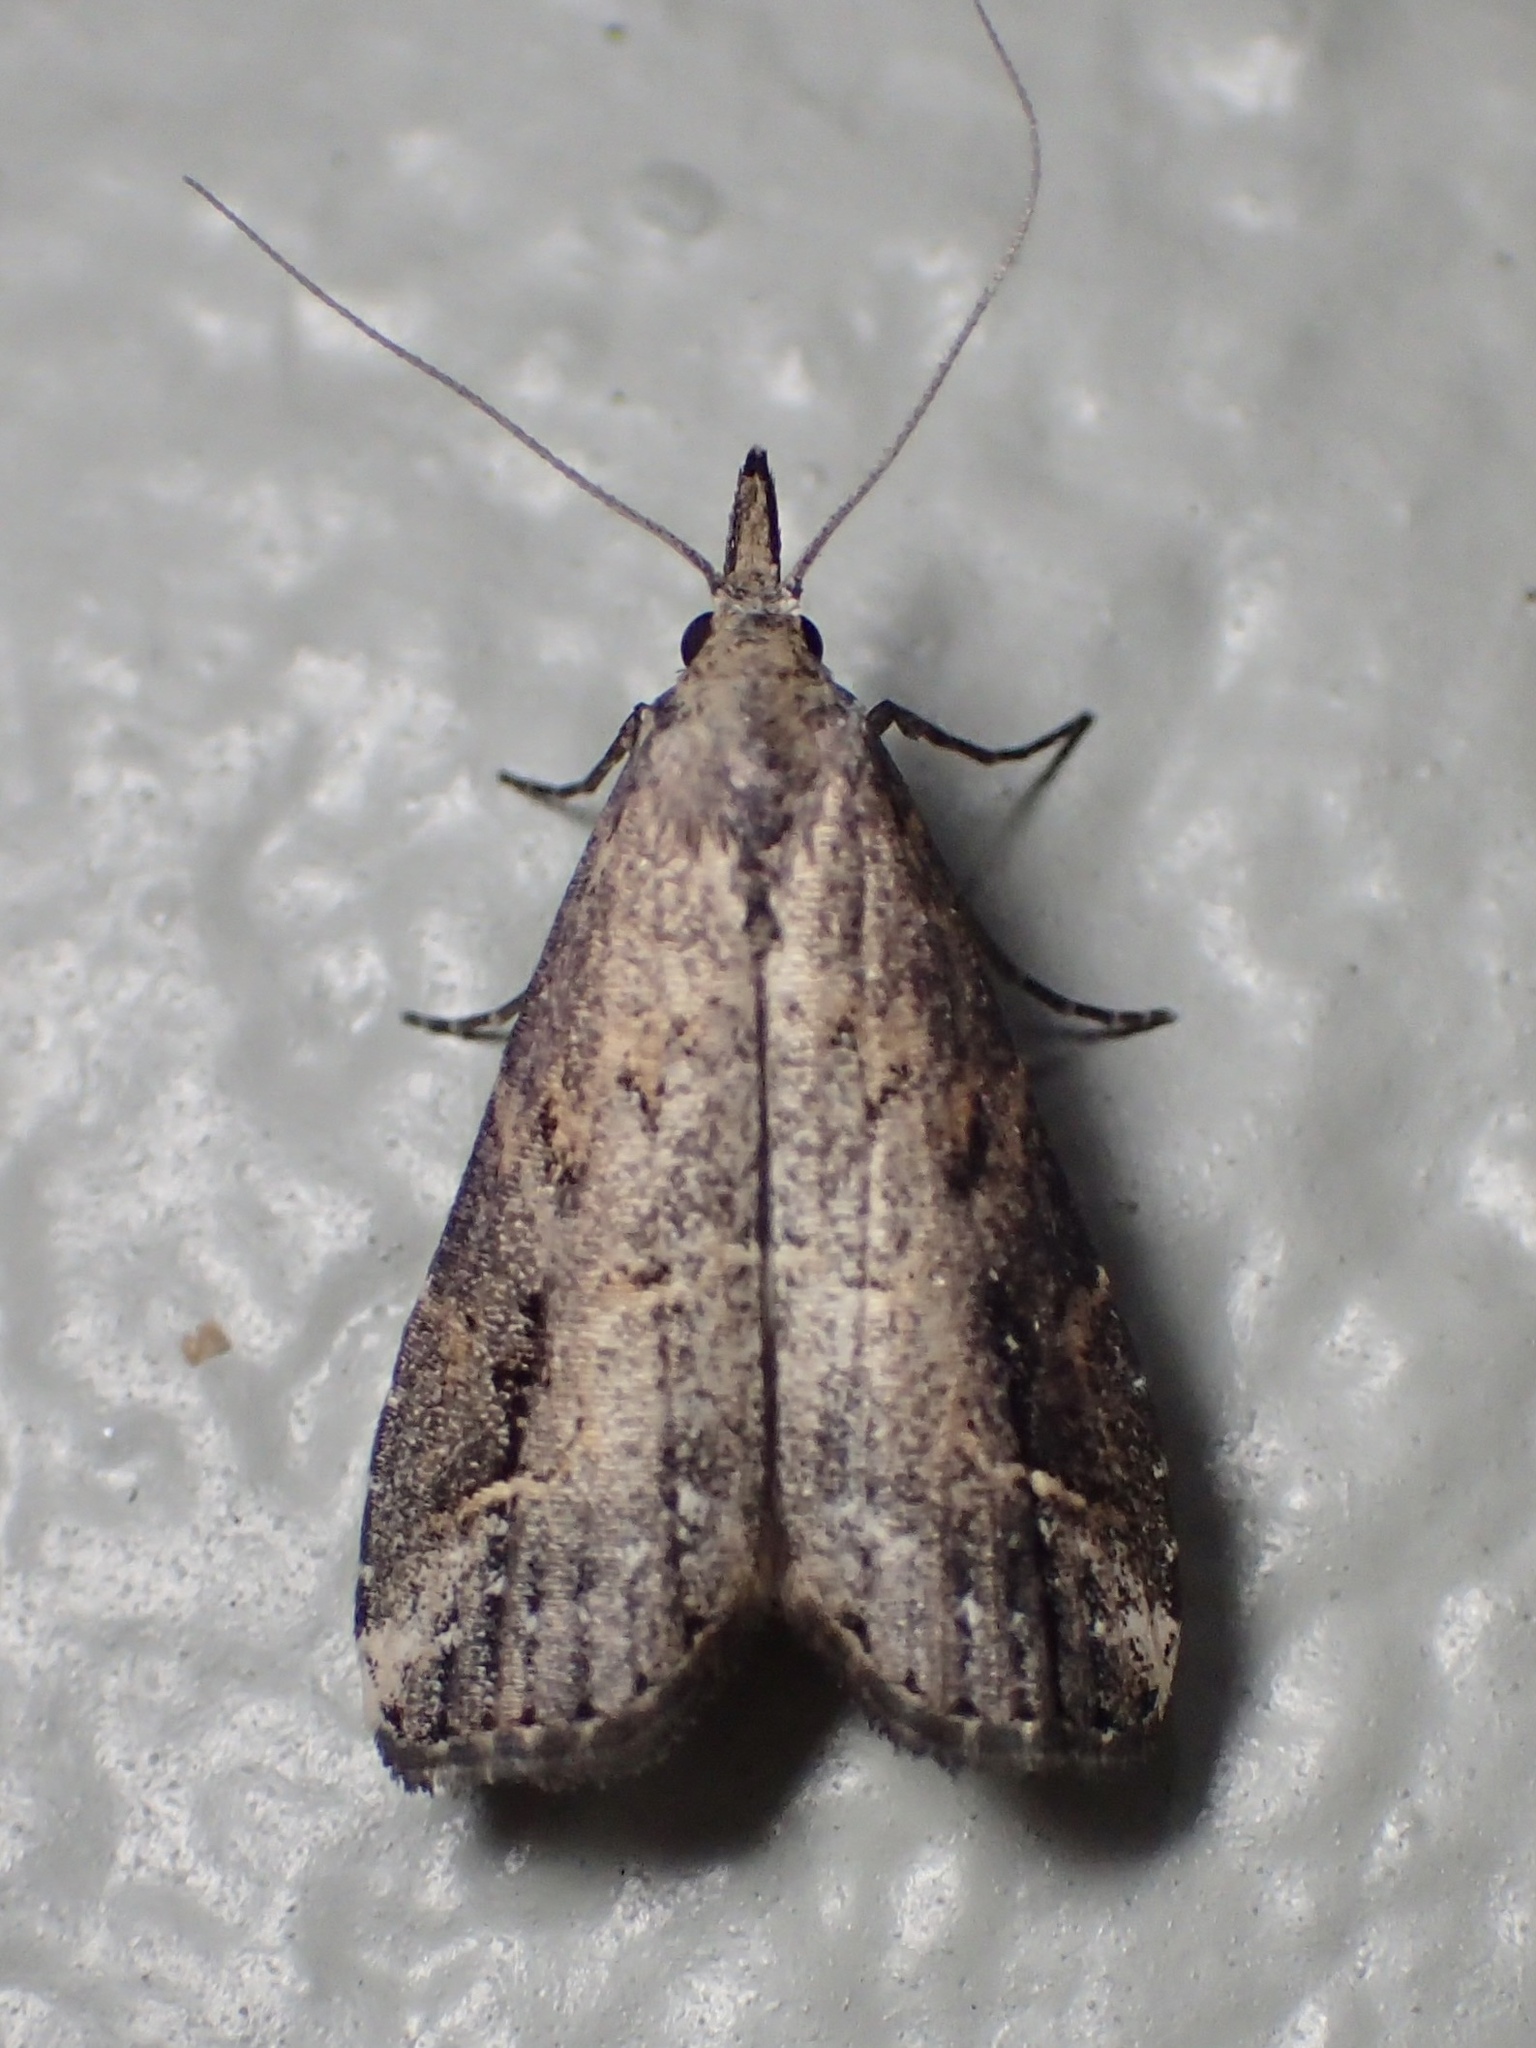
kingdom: Animalia
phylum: Arthropoda
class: Insecta
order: Lepidoptera
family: Erebidae
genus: Schrankia
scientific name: Schrankia costaestrigalis
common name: Pinion-streaked snout
